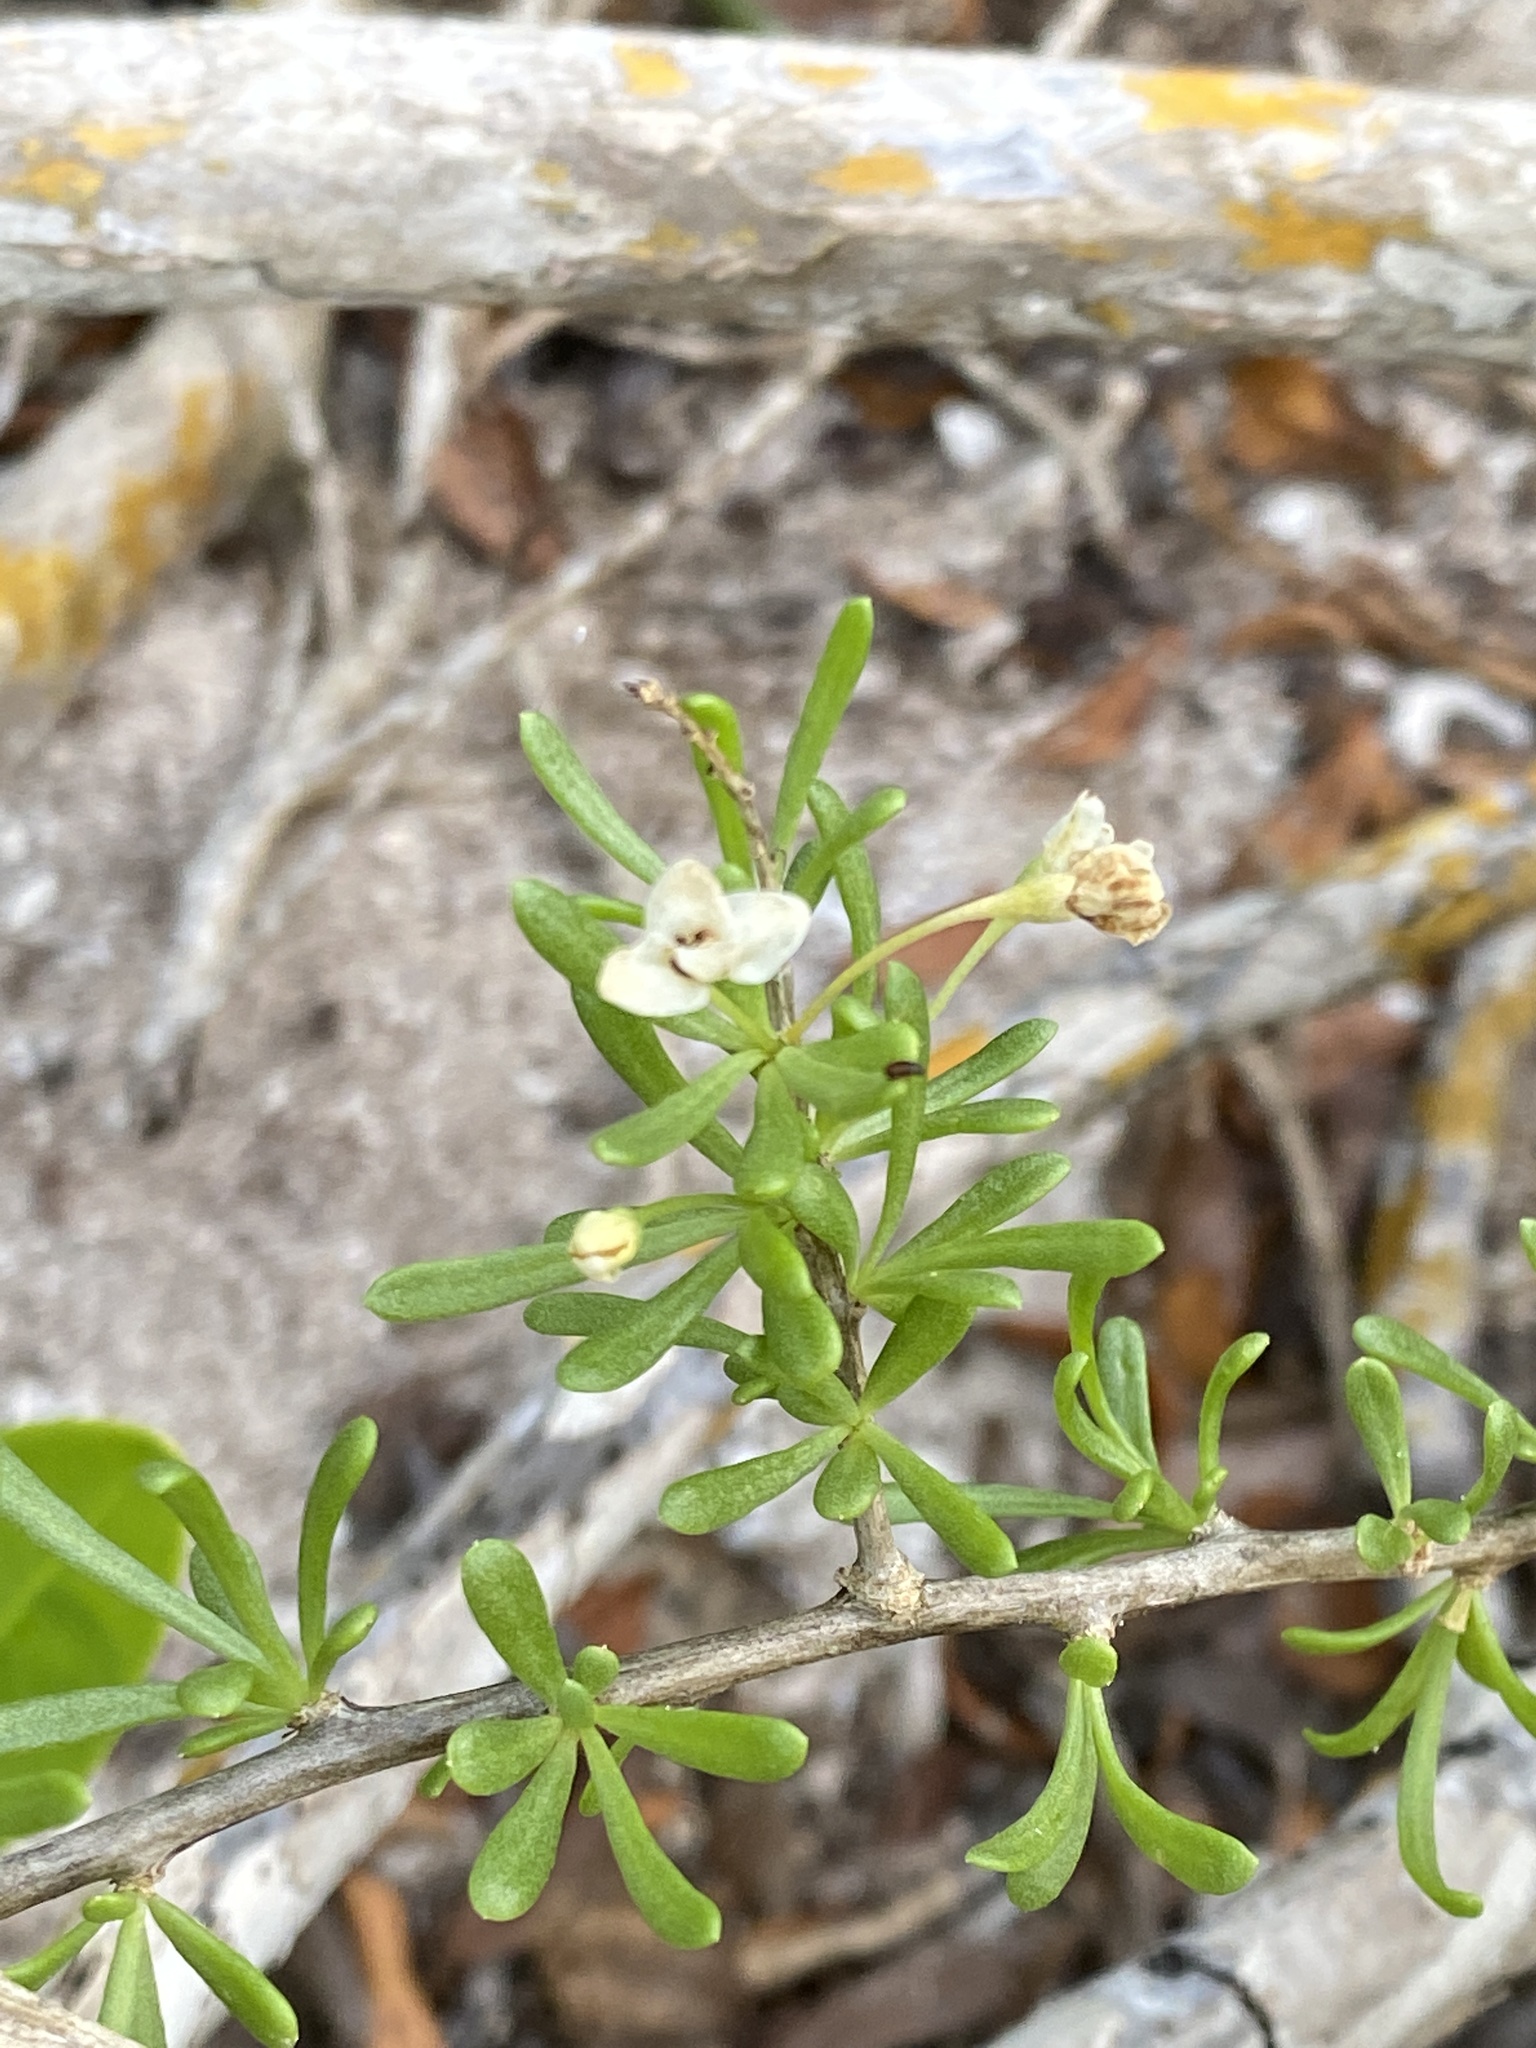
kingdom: Plantae
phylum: Tracheophyta
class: Magnoliopsida
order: Solanales
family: Solanaceae
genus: Lycium
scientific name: Lycium carolinianum
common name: Christmasberry
